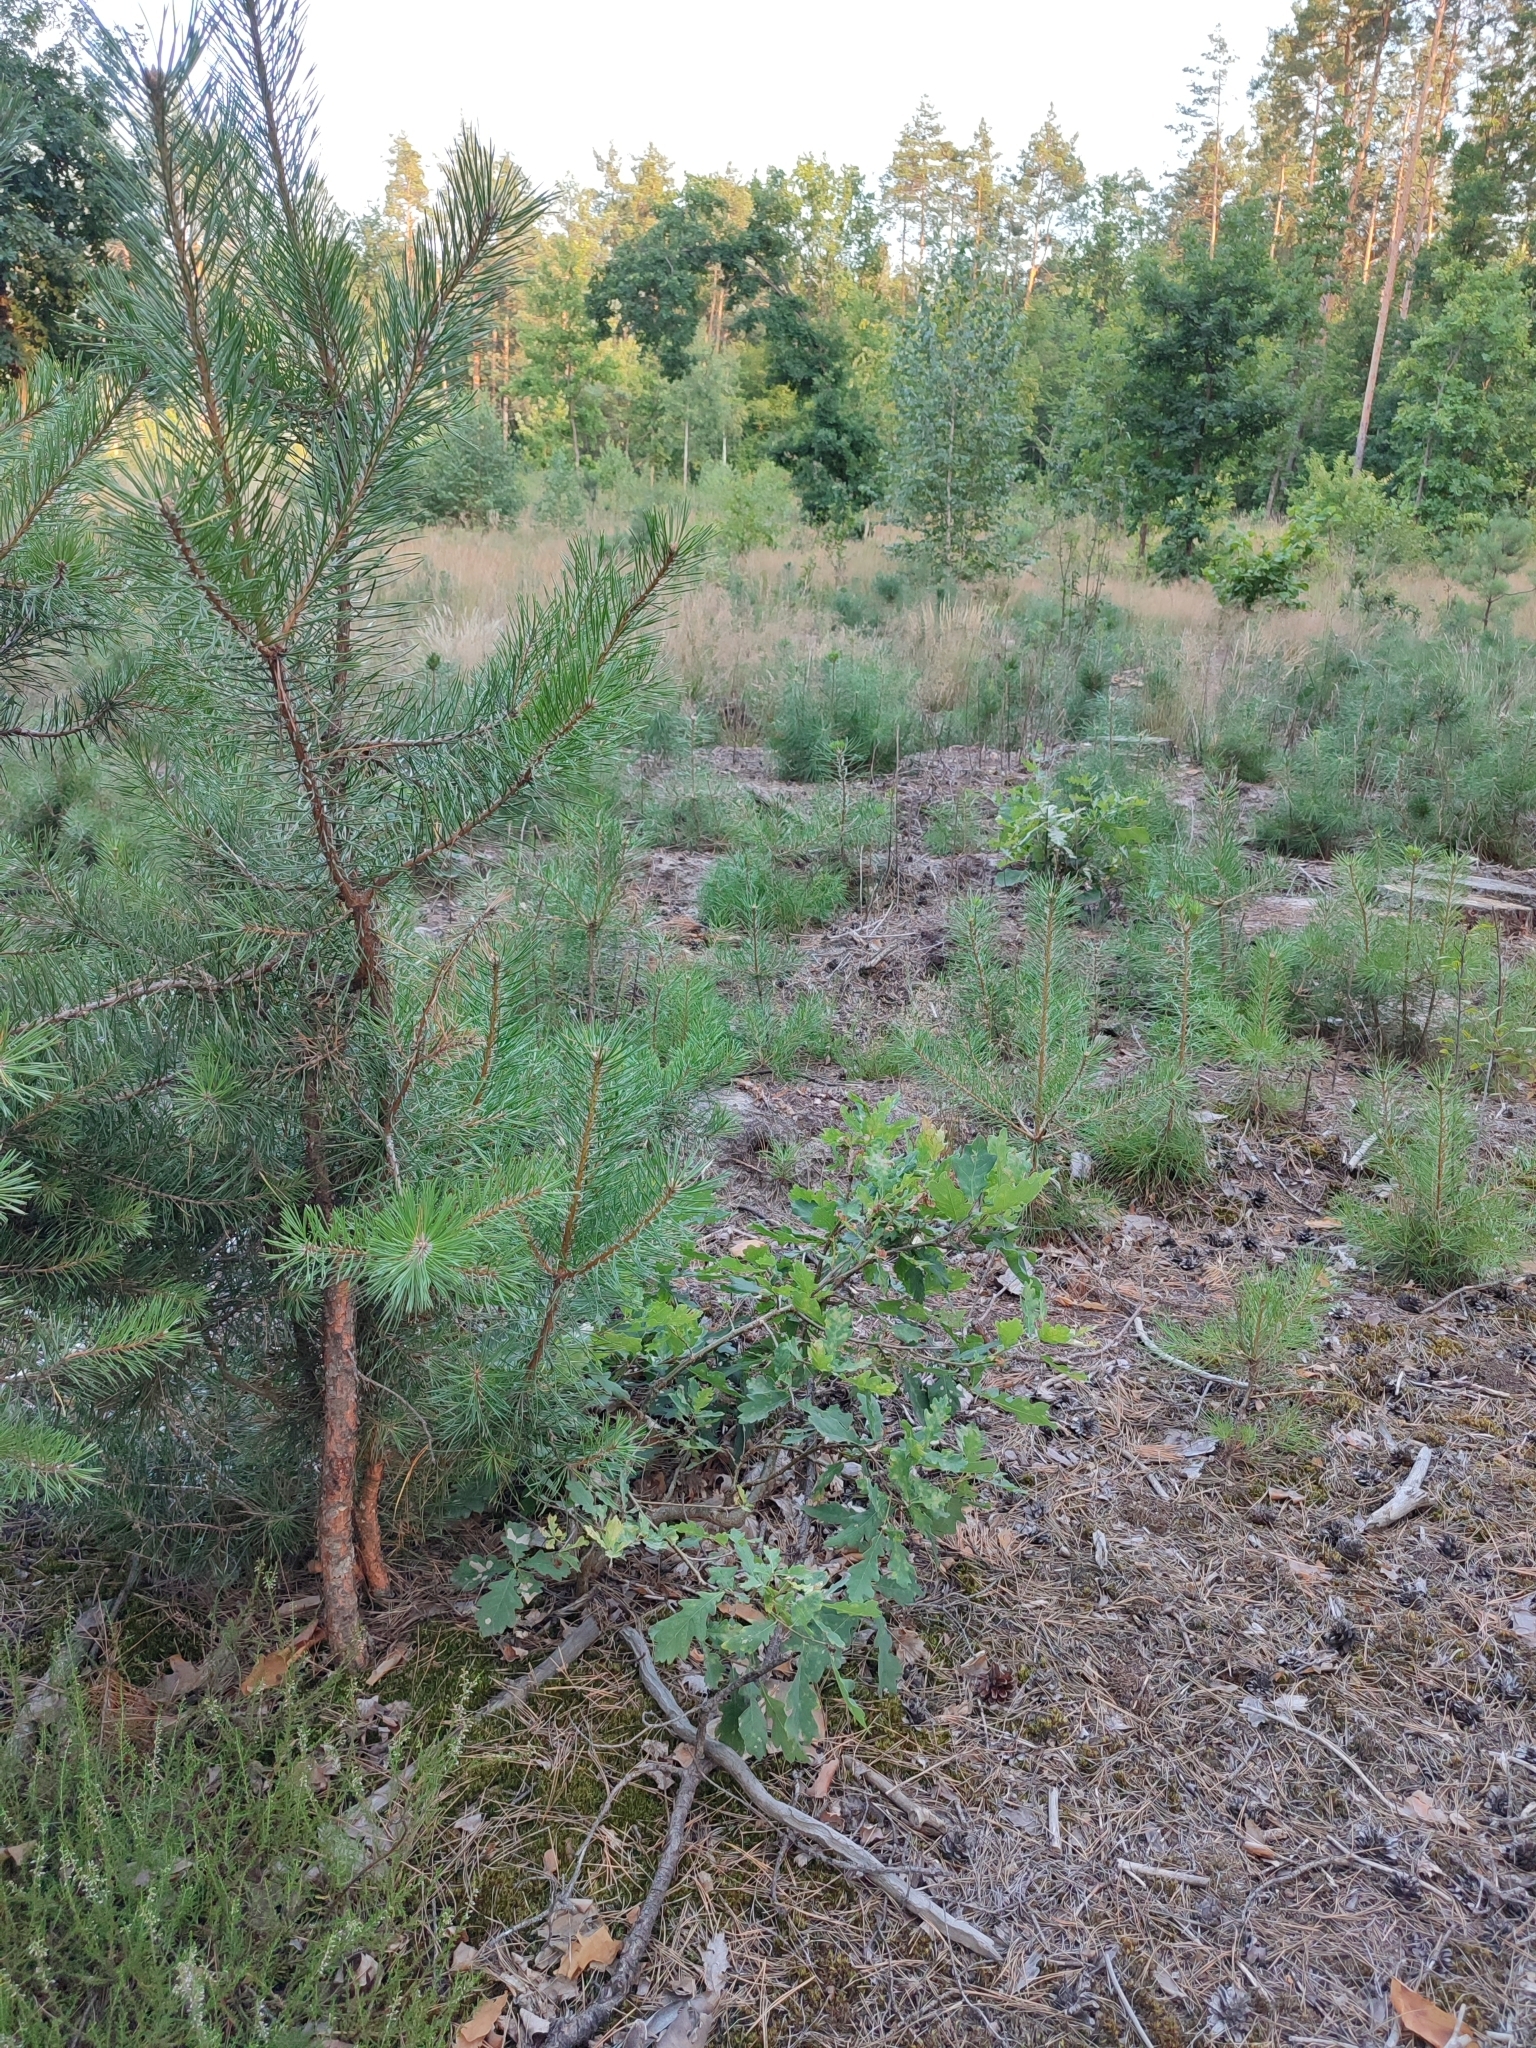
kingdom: Plantae
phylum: Tracheophyta
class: Magnoliopsida
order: Fagales
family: Fagaceae
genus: Quercus
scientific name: Quercus robur
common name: Pedunculate oak
